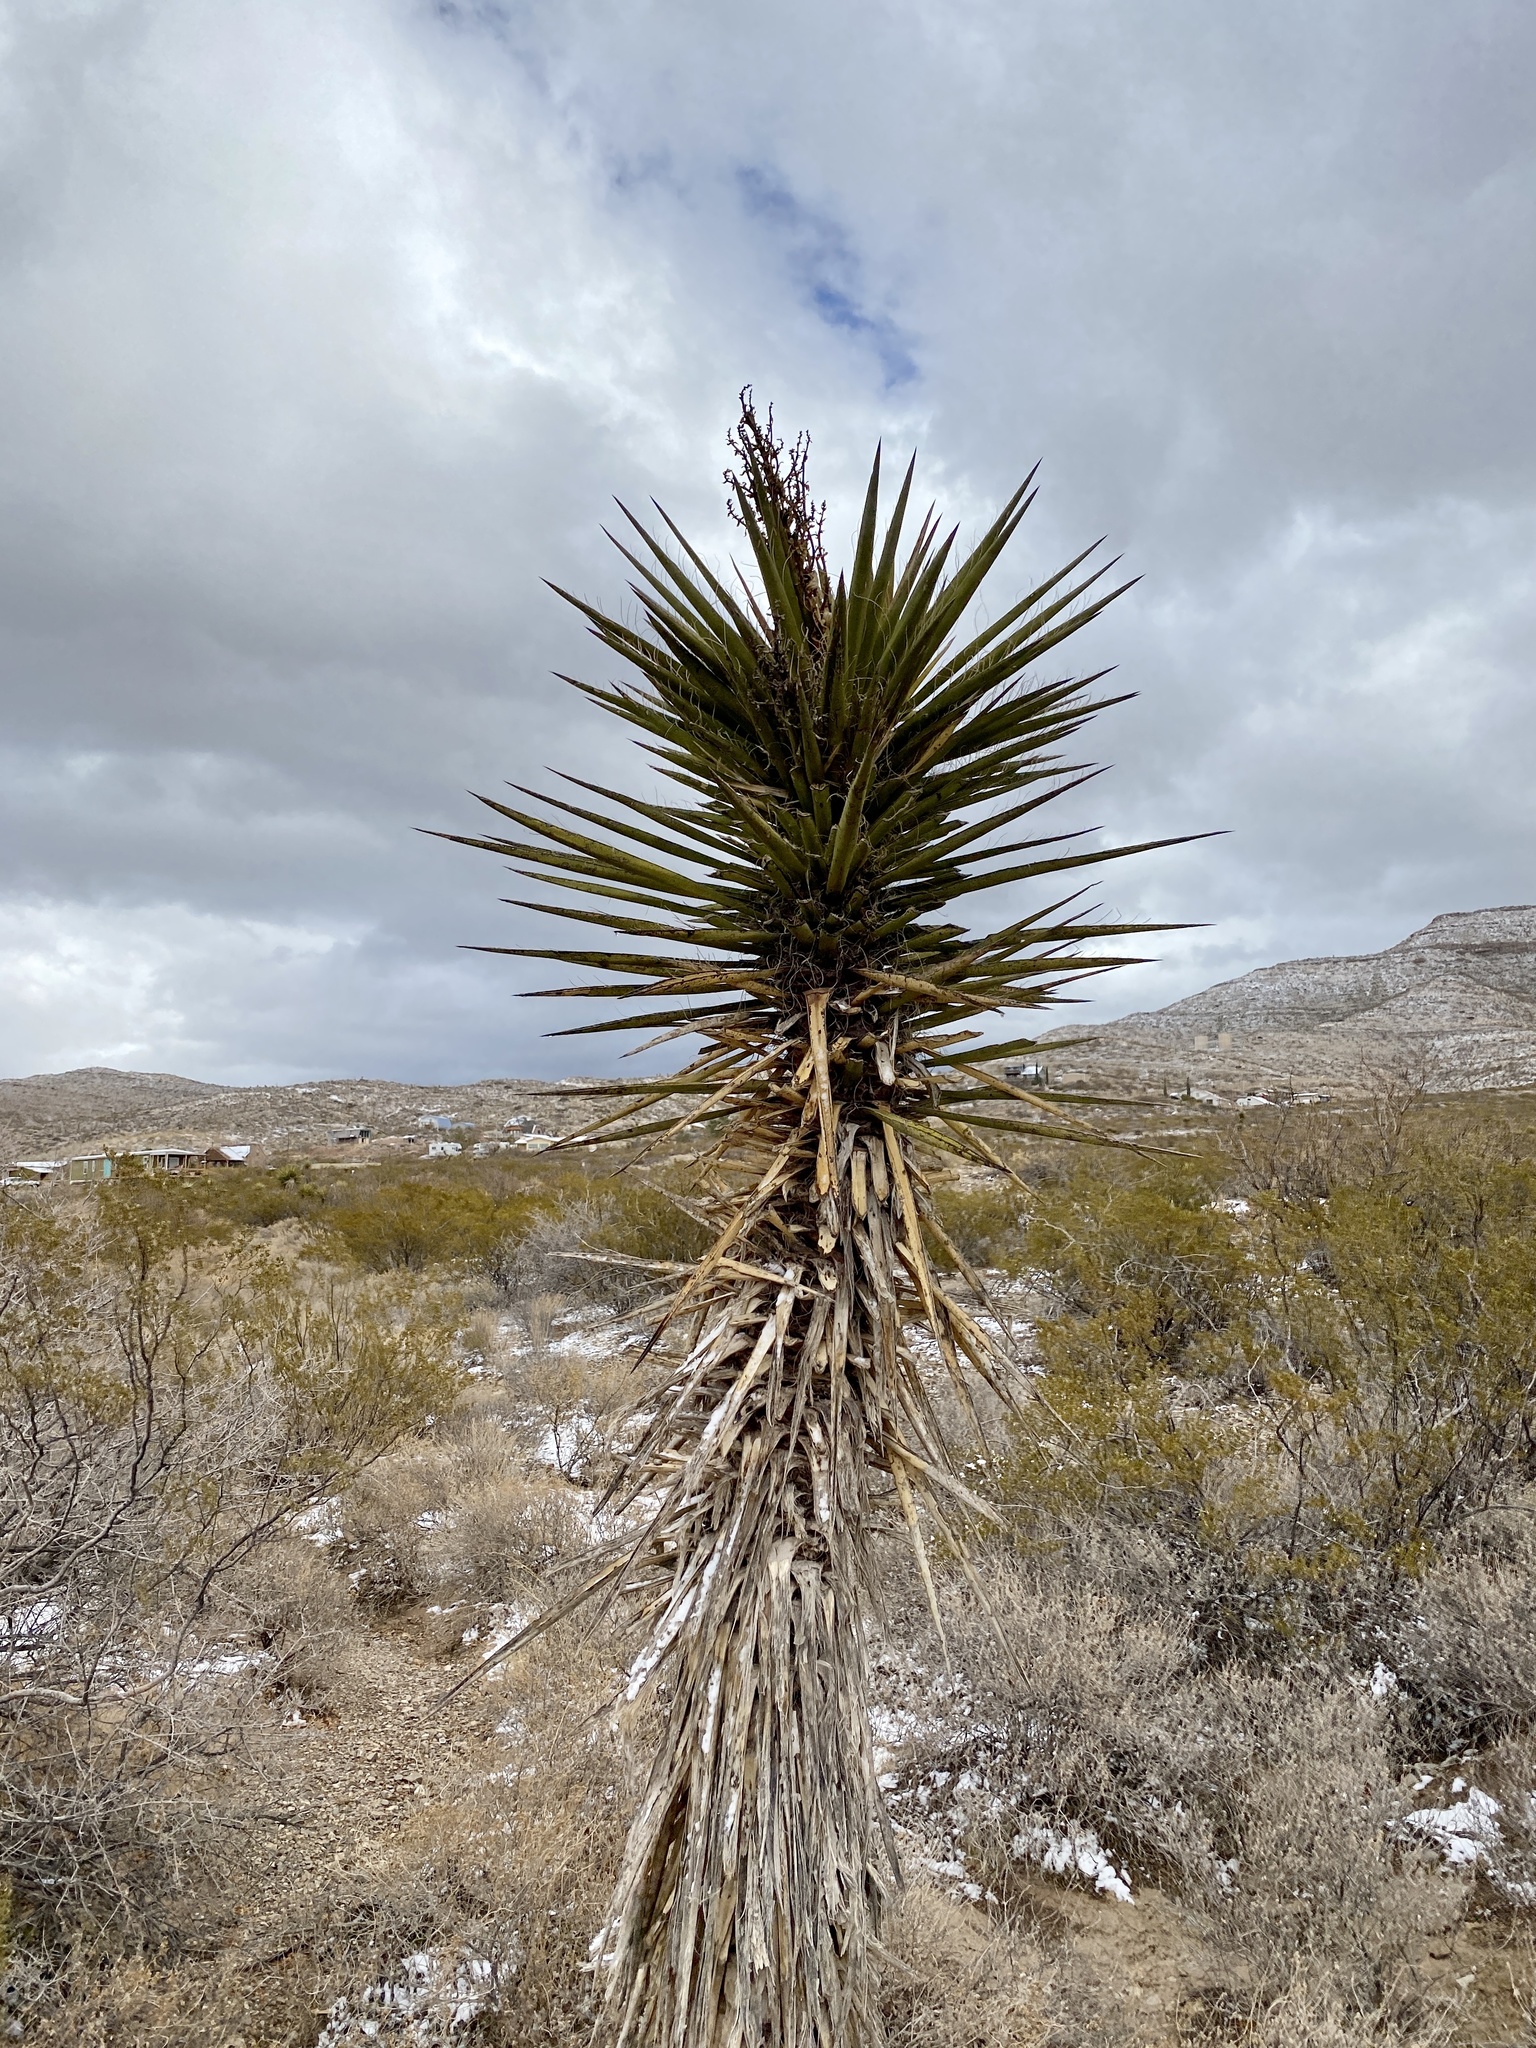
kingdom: Plantae
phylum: Tracheophyta
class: Liliopsida
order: Asparagales
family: Asparagaceae
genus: Yucca
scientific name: Yucca treculiana
